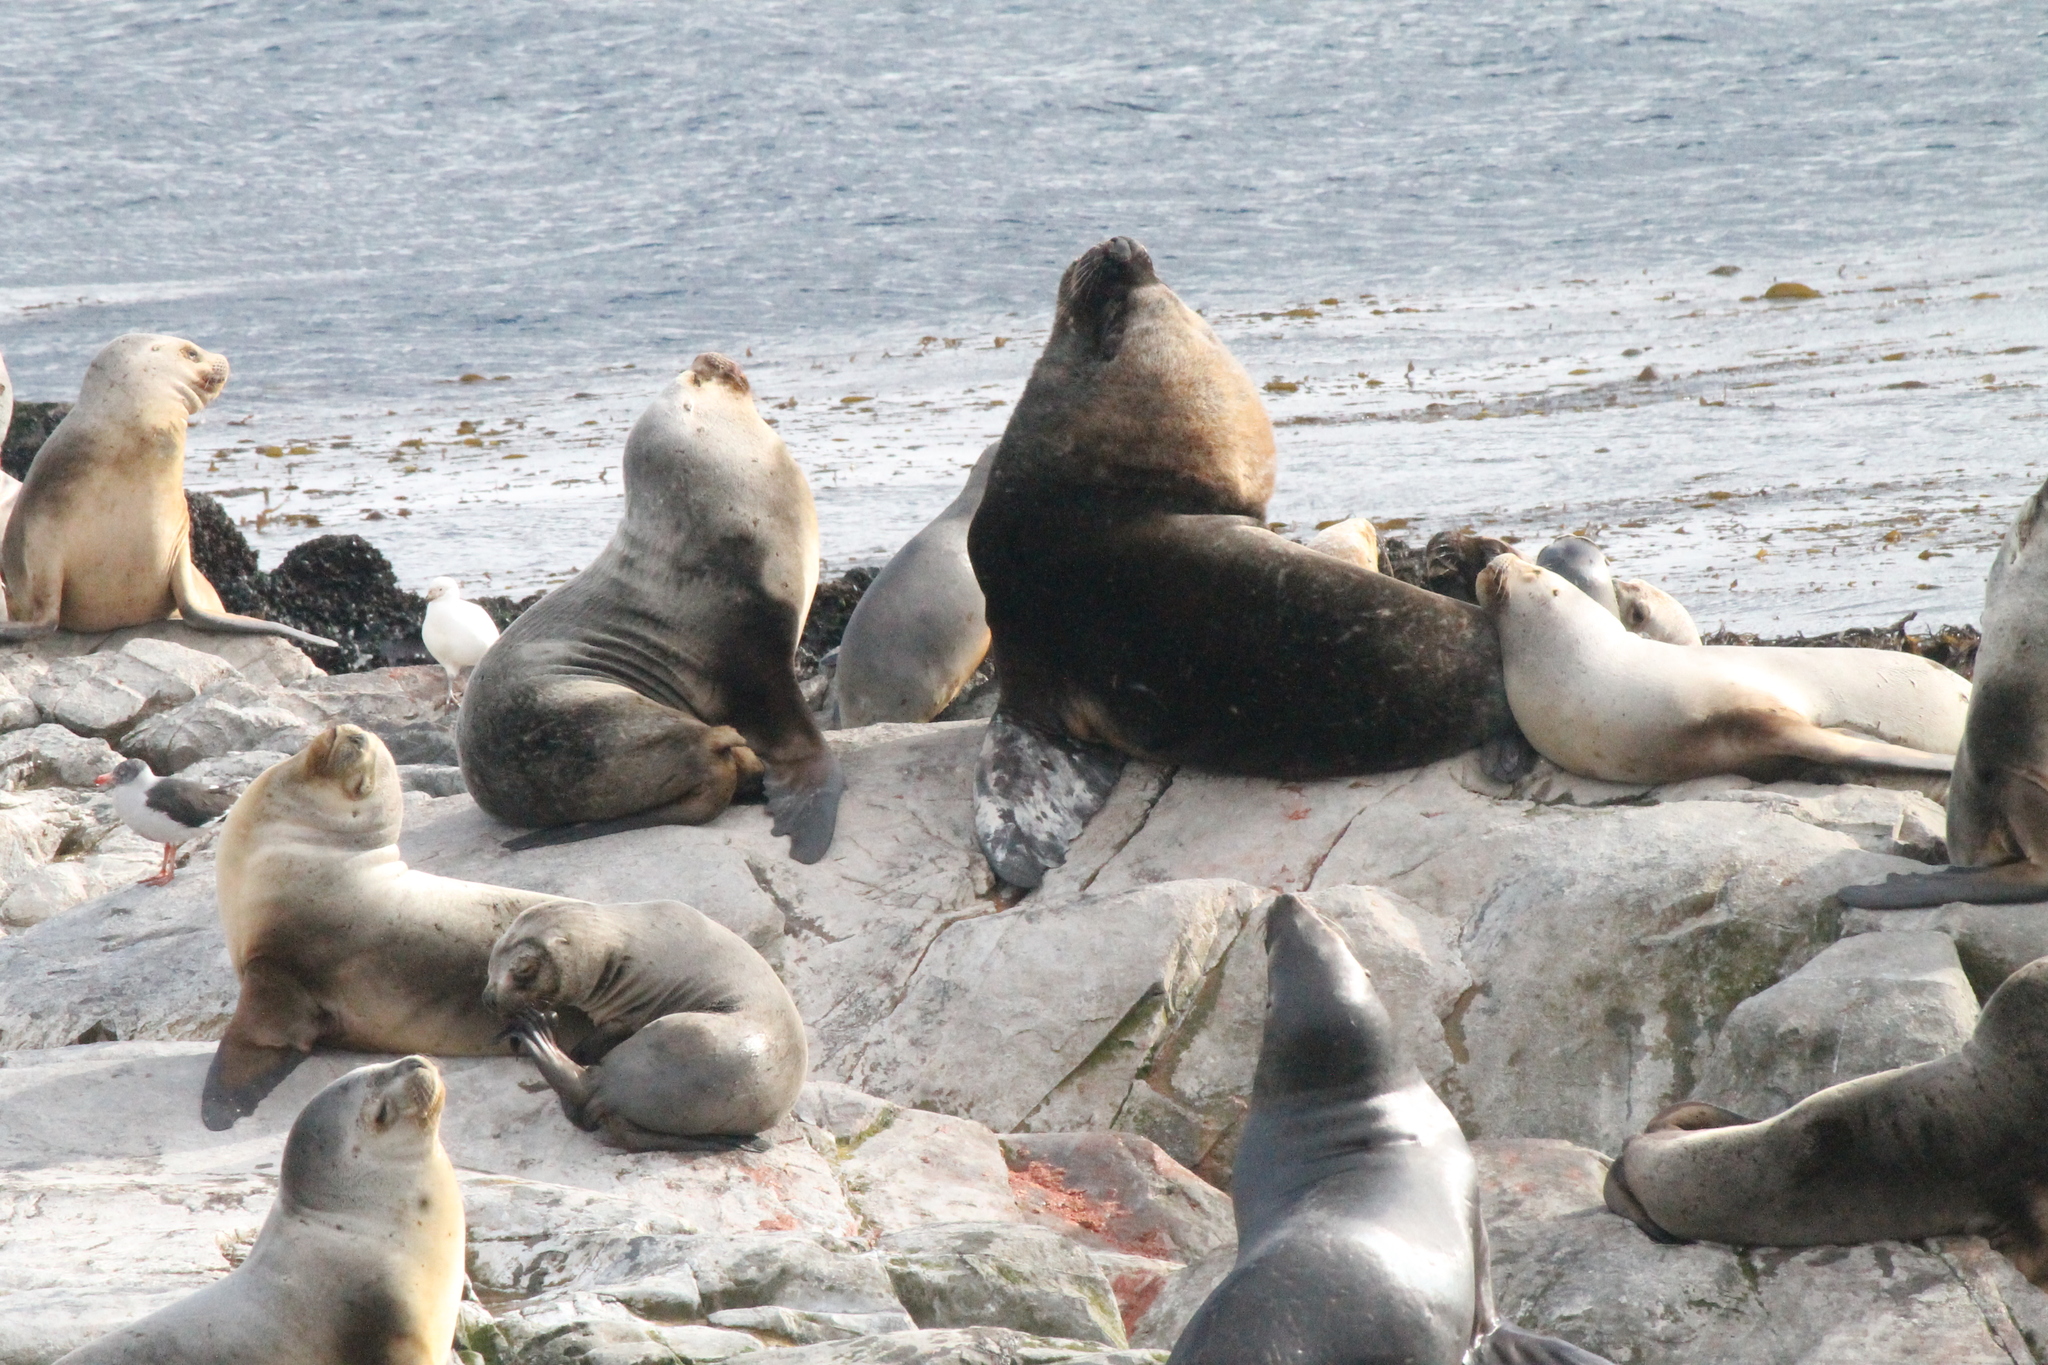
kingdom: Animalia
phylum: Chordata
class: Mammalia
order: Carnivora
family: Otariidae
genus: Otaria
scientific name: Otaria byronia
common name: South american sea lion
